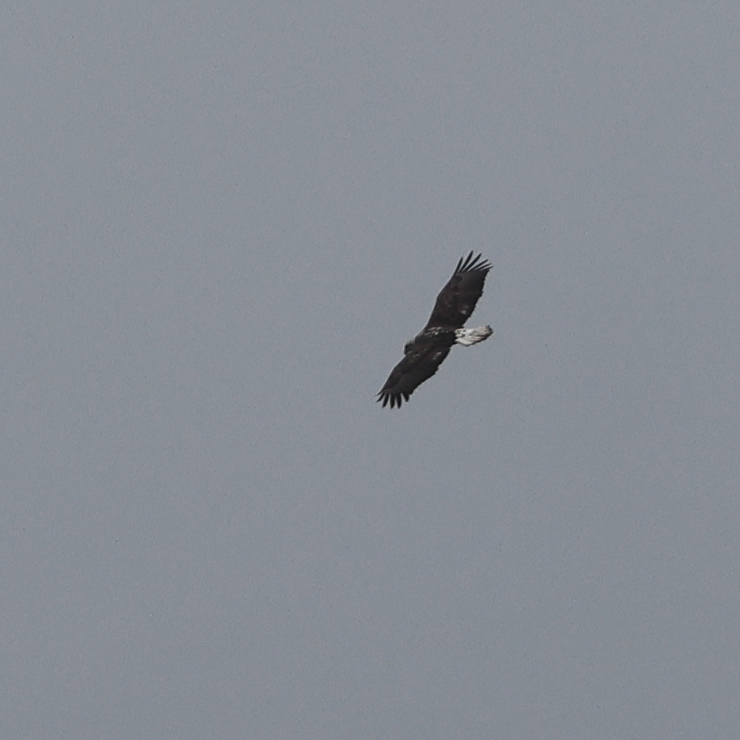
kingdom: Animalia
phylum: Chordata
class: Aves
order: Accipitriformes
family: Accipitridae
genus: Haliaeetus
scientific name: Haliaeetus leucocephalus
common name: Bald eagle
